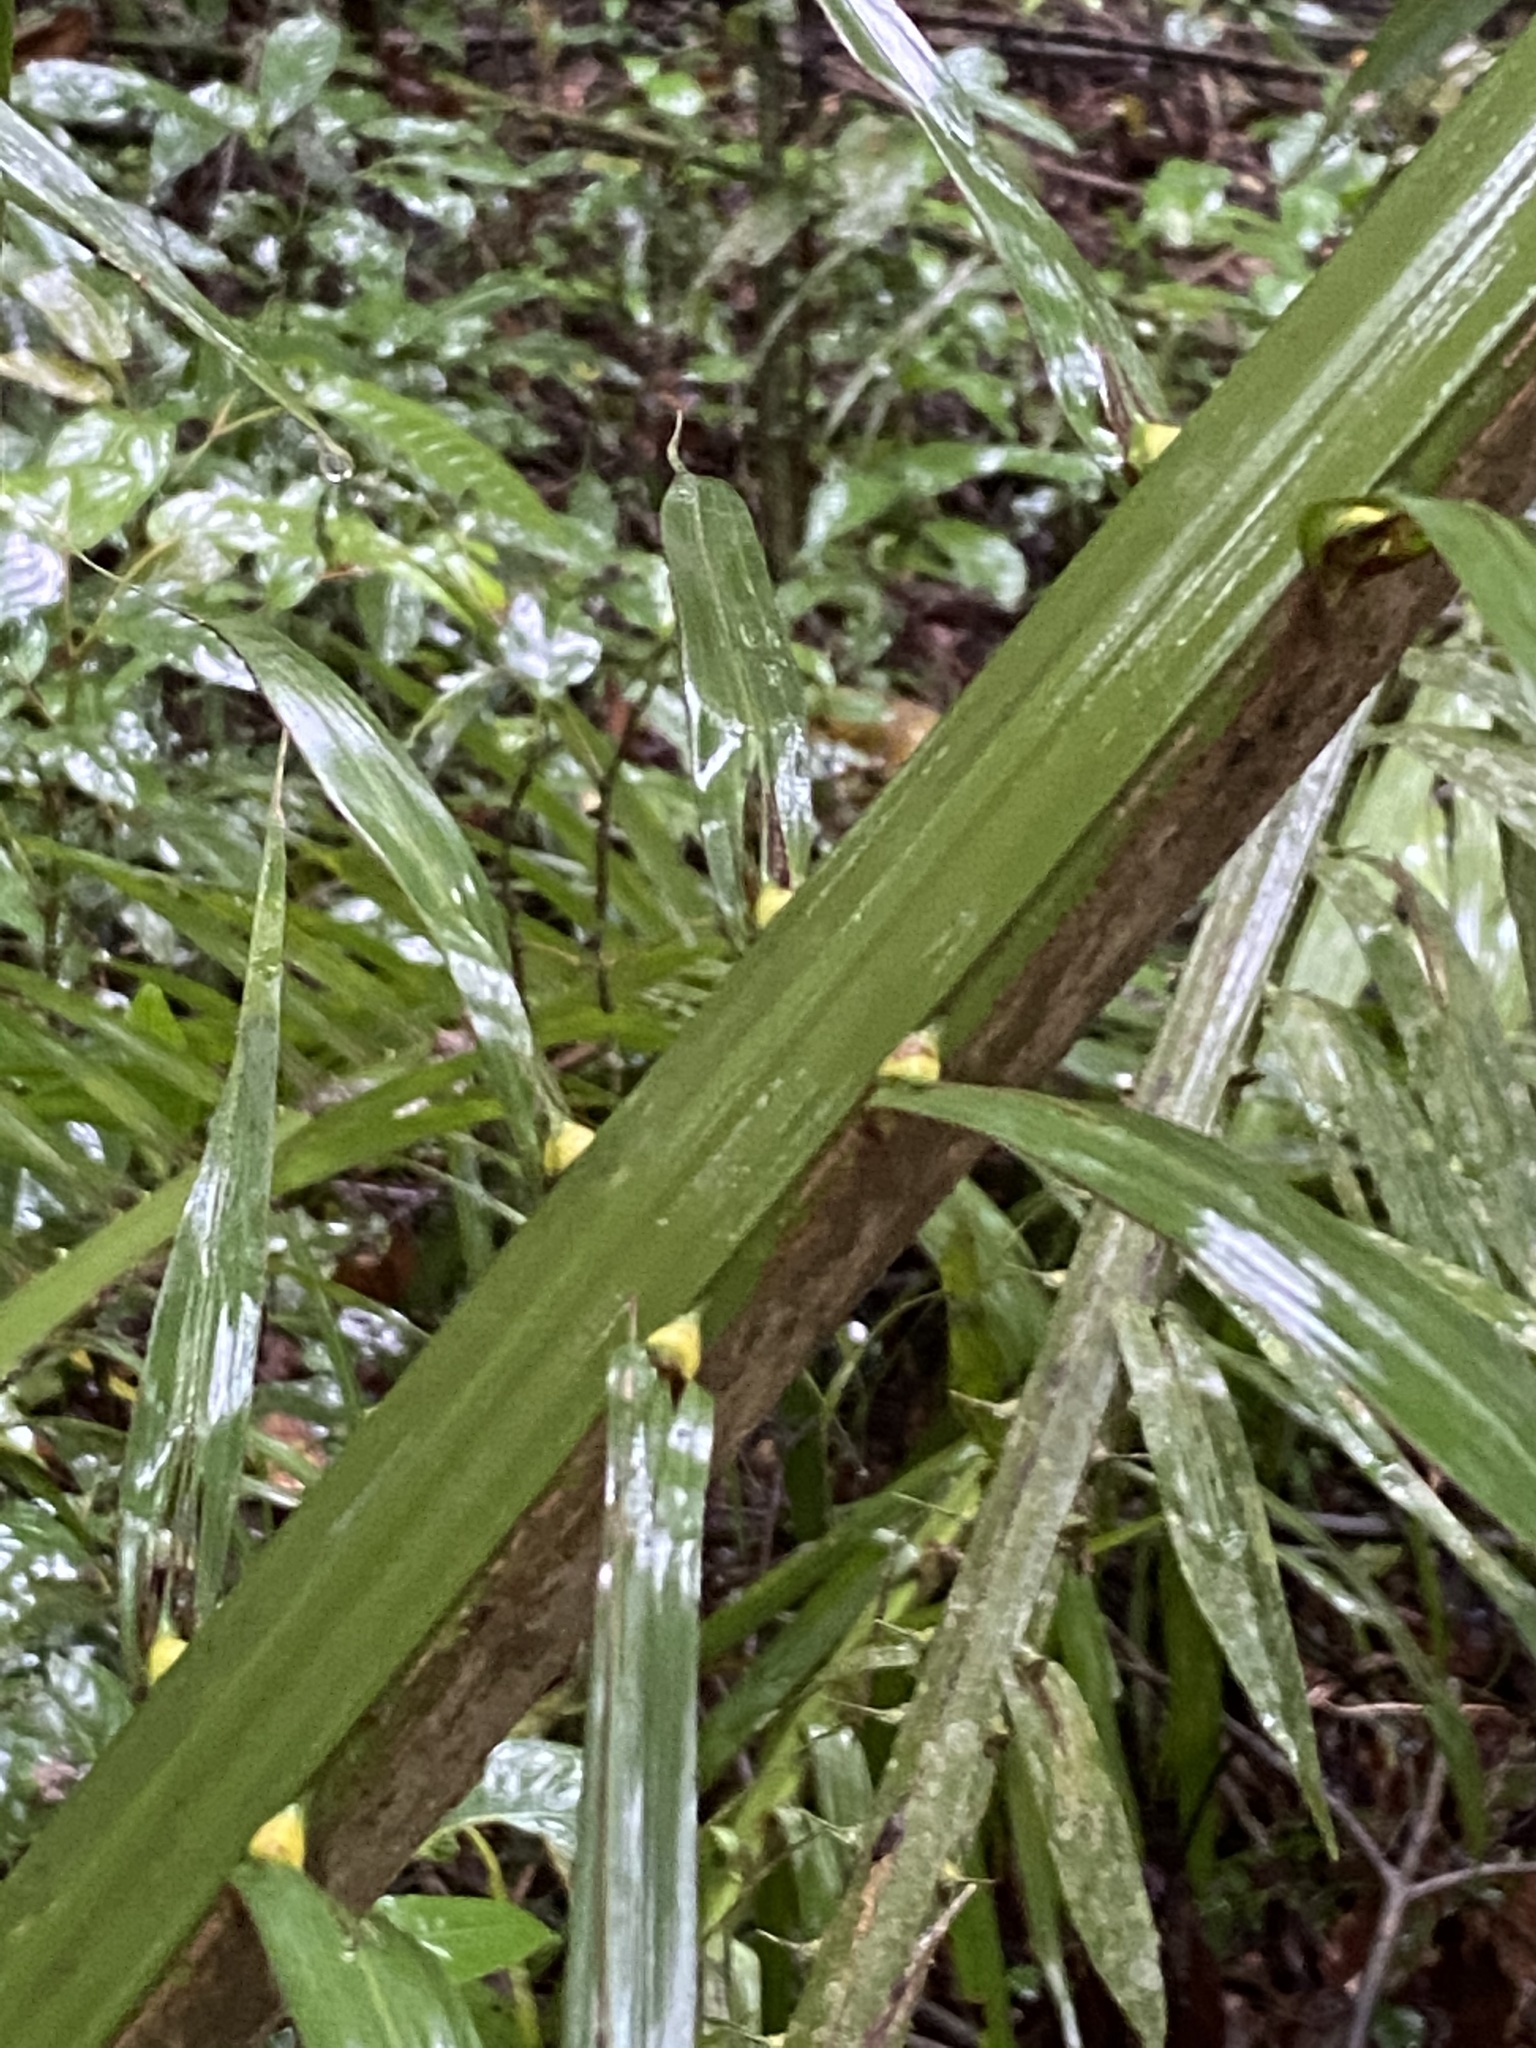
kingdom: Plantae
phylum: Tracheophyta
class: Liliopsida
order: Arecales
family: Arecaceae
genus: Elaeis
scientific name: Elaeis guineensis
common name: Oil palm
